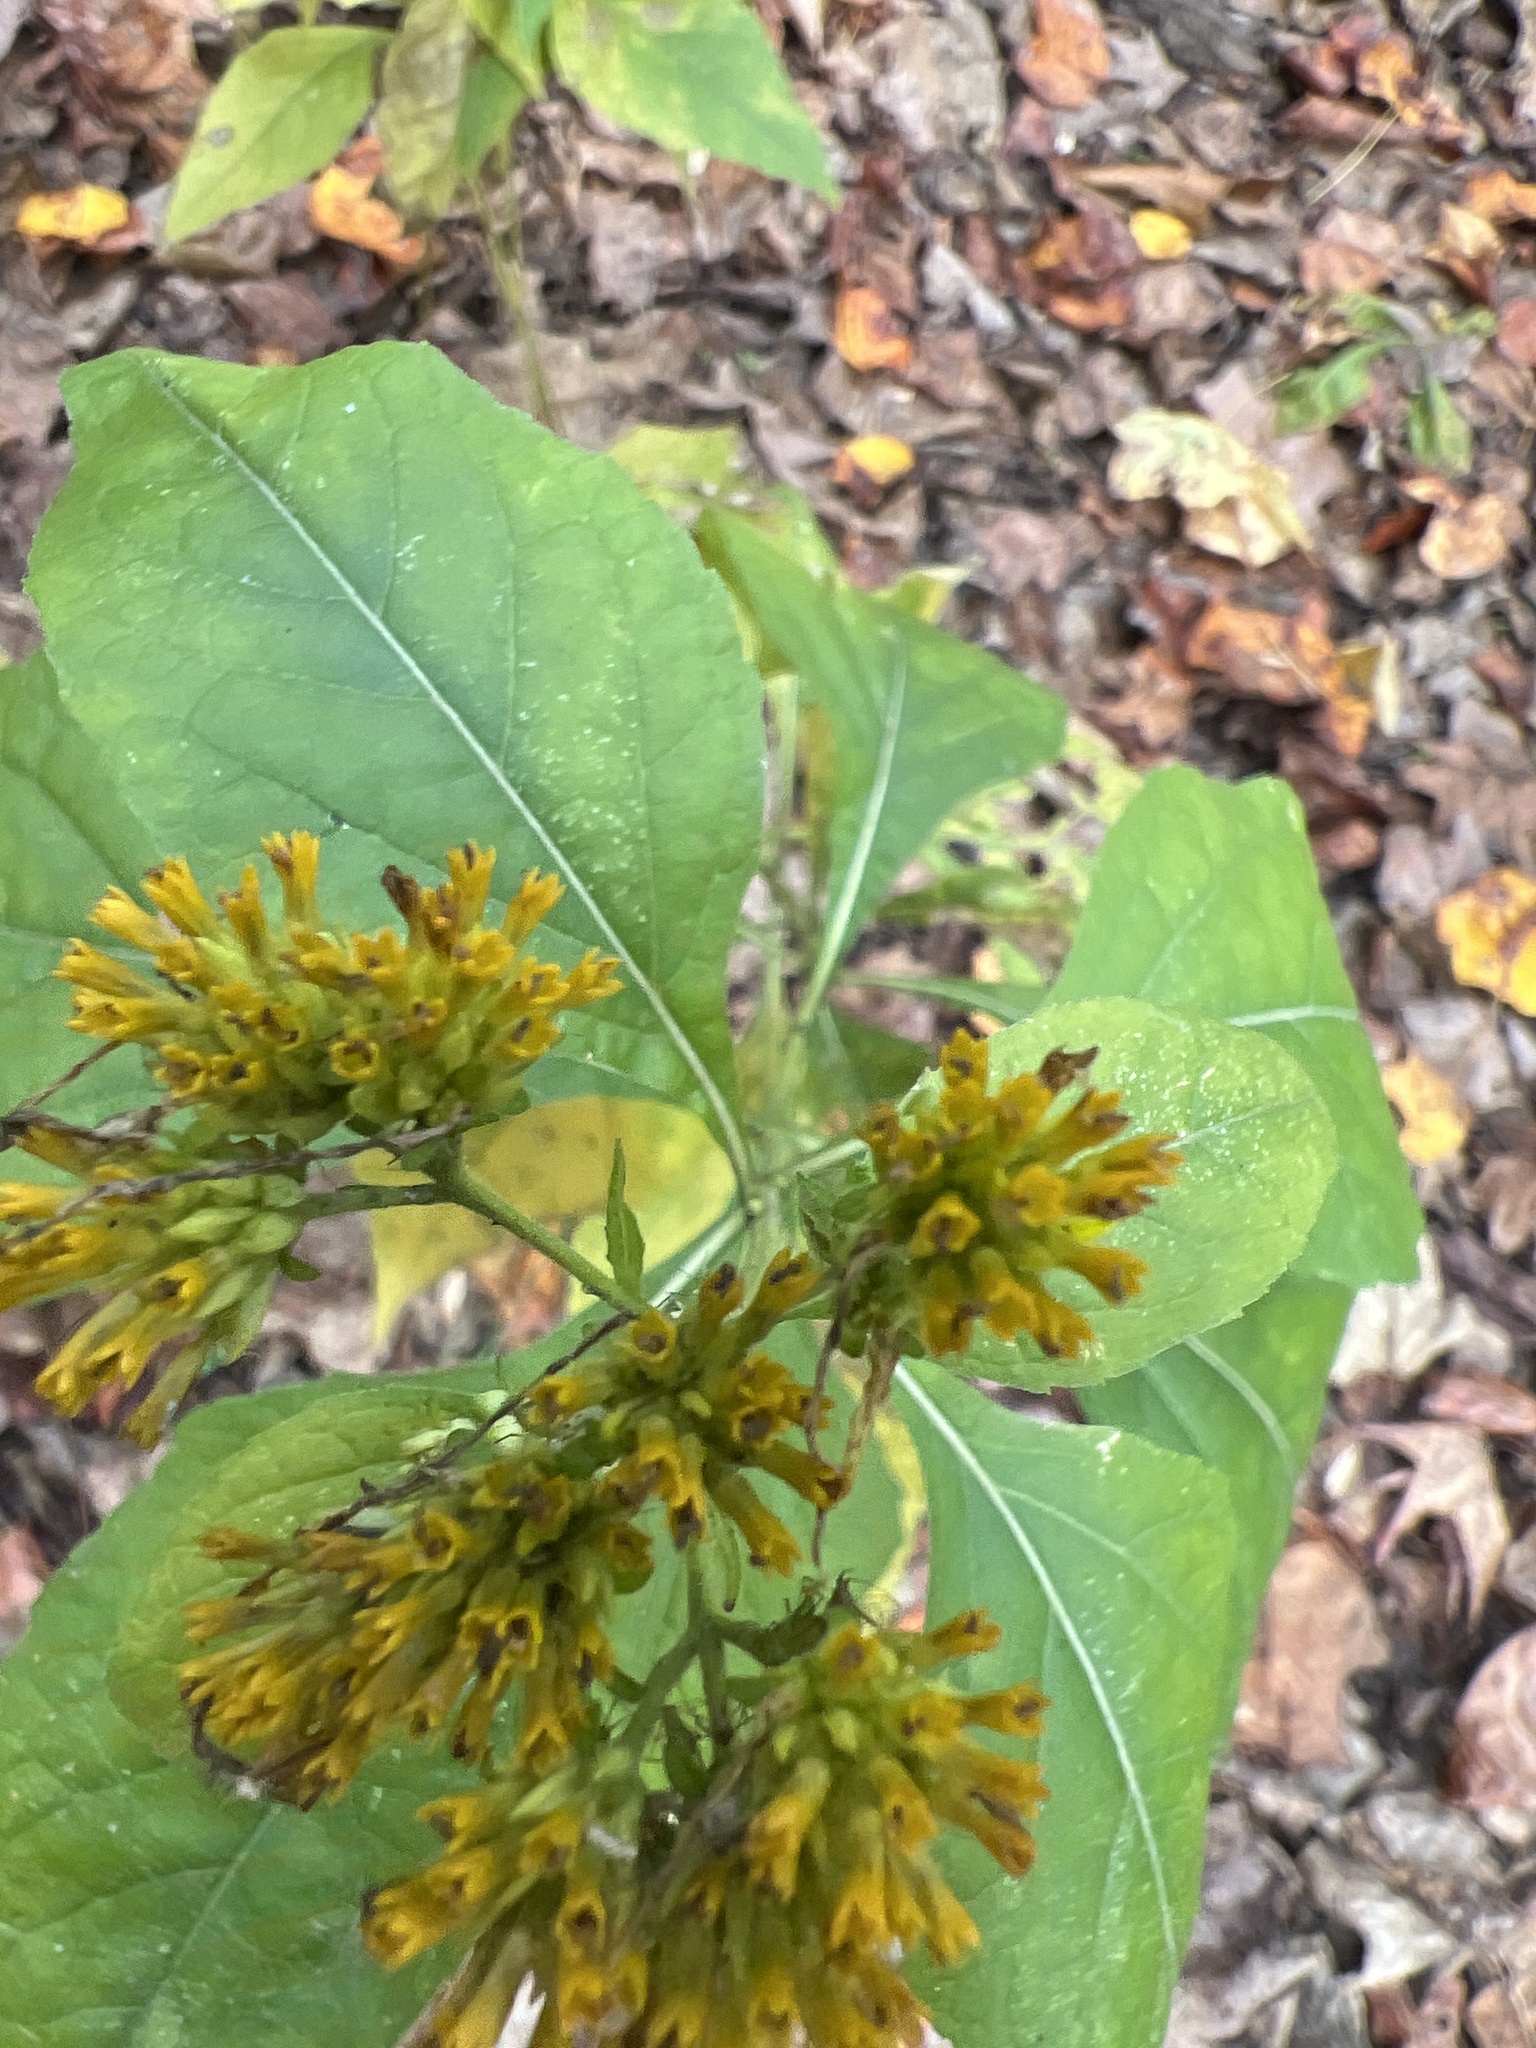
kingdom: Plantae
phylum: Tracheophyta
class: Magnoliopsida
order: Asterales
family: Asteraceae
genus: Verbesina
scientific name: Verbesina occidentalis
